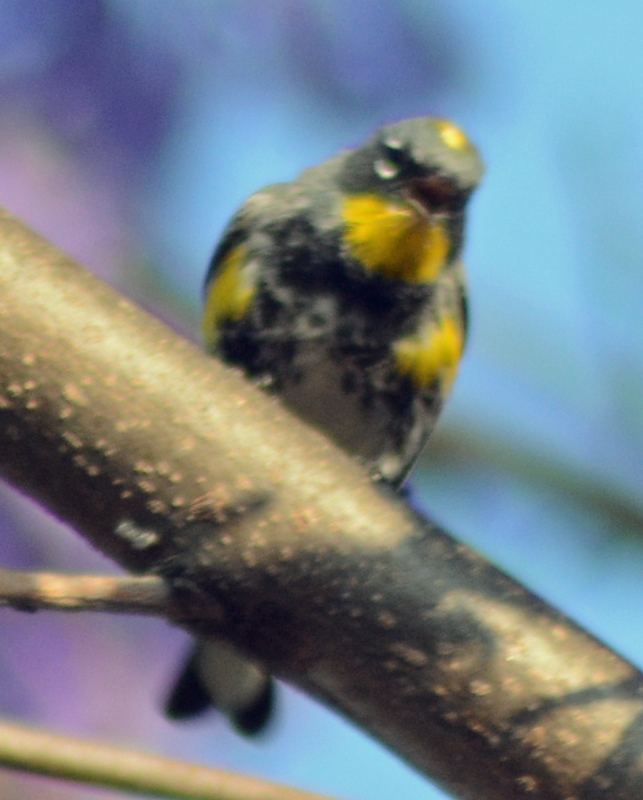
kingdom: Animalia
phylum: Chordata
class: Aves
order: Passeriformes
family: Parulidae
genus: Setophaga
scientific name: Setophaga auduboni
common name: Audubon's warbler
